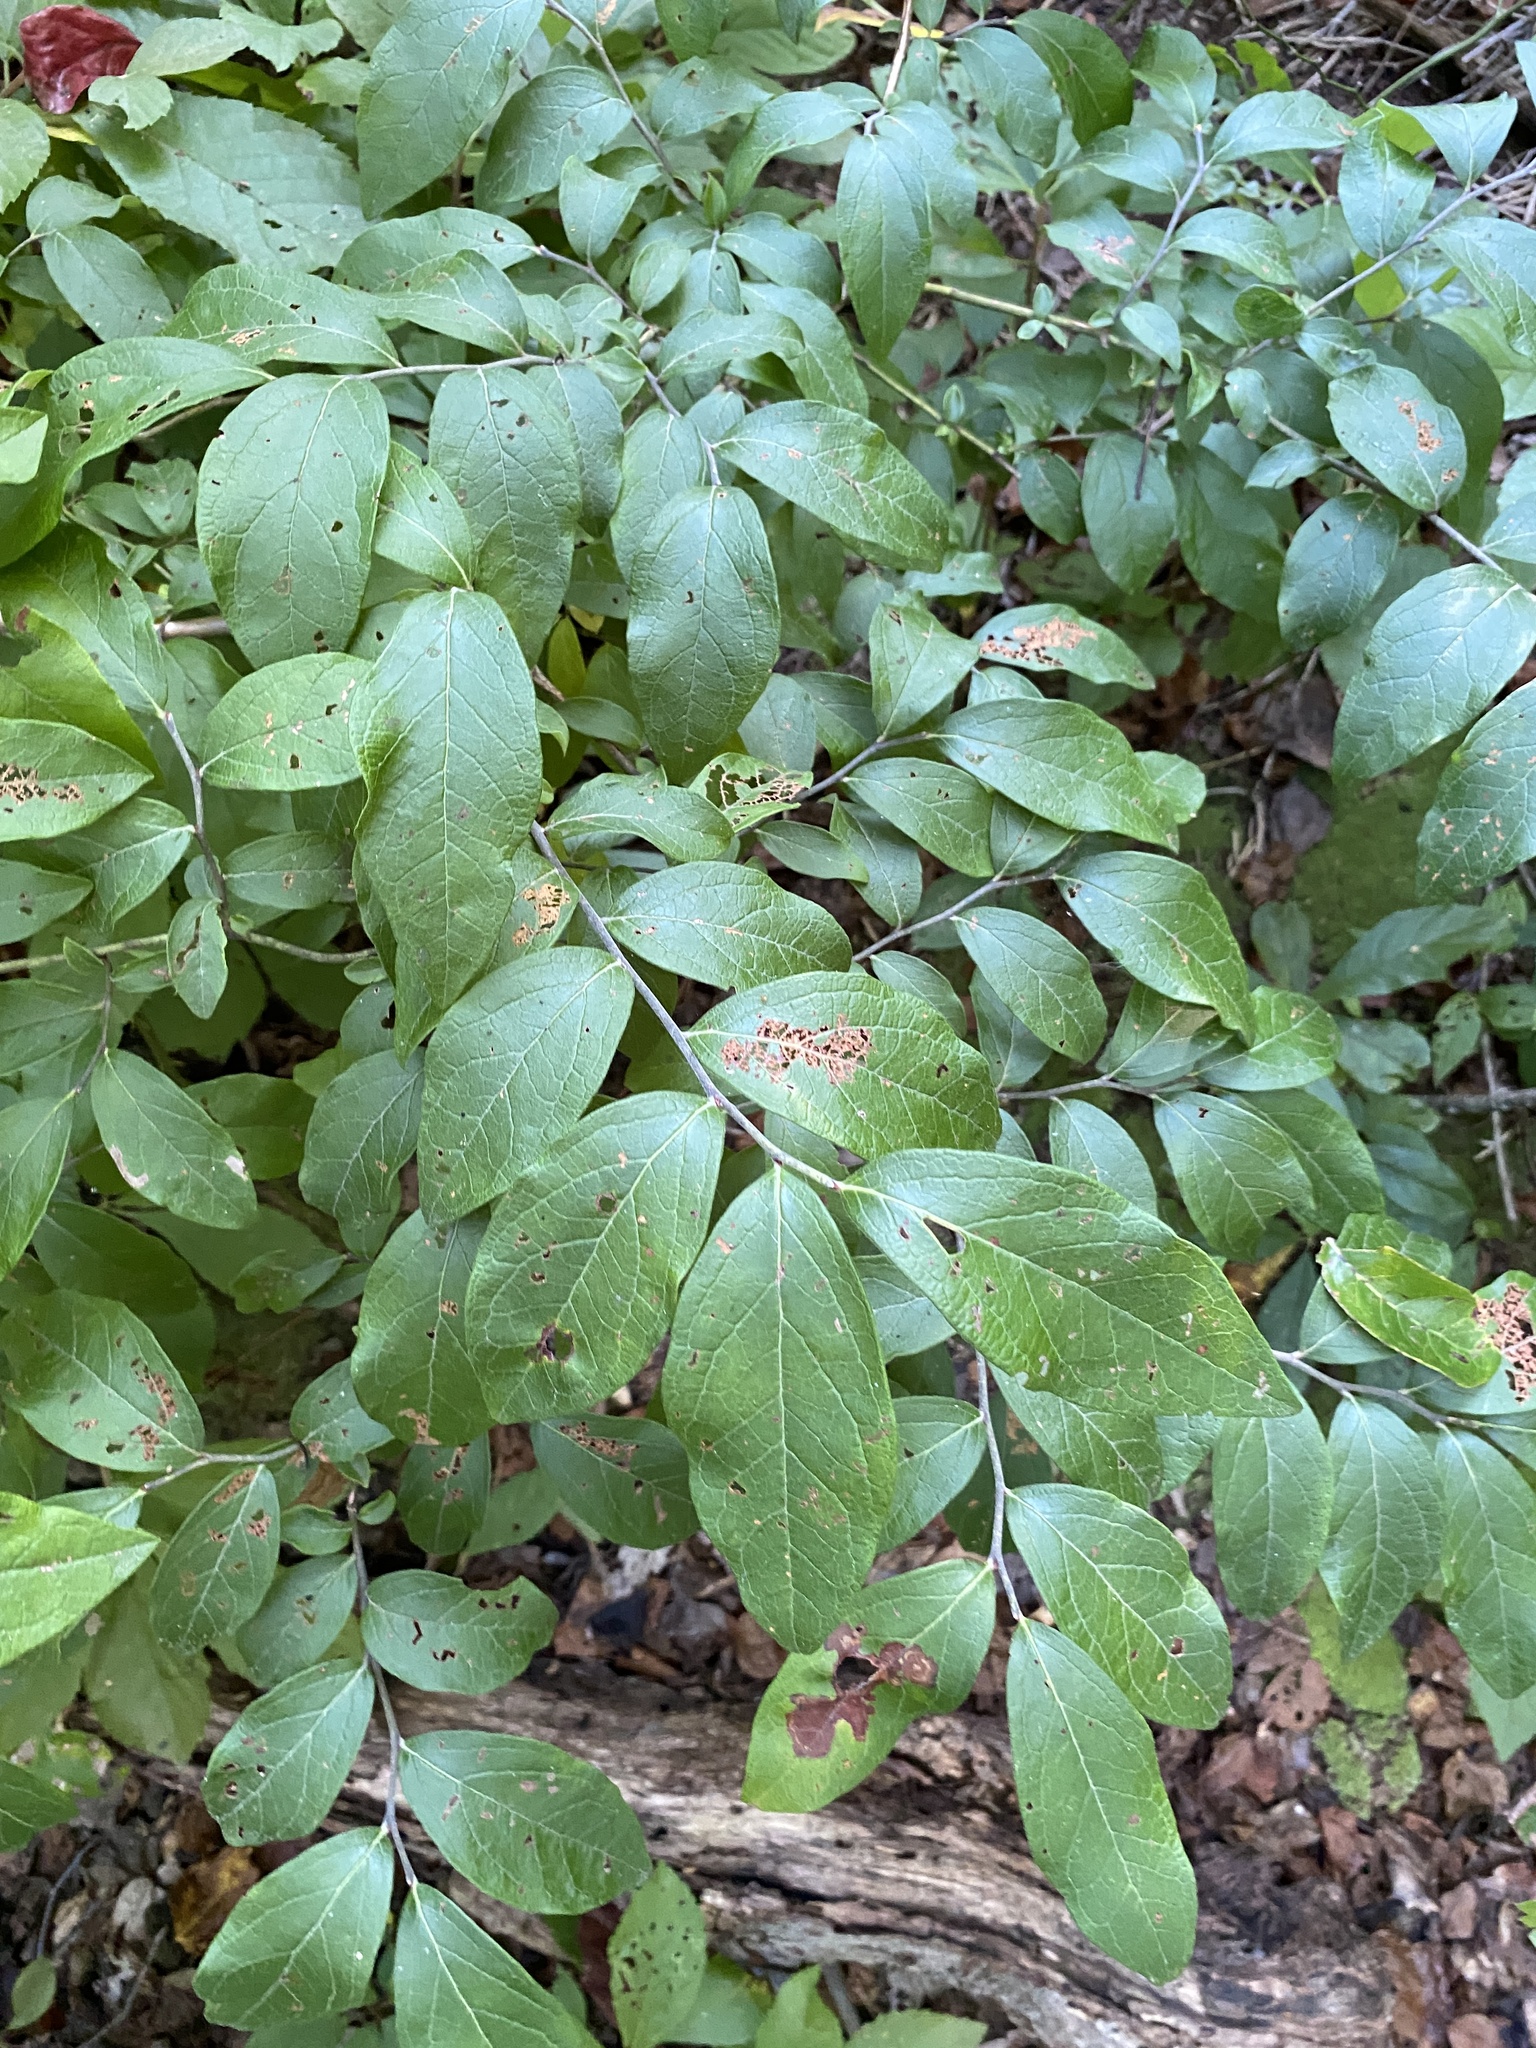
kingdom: Plantae
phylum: Tracheophyta
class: Magnoliopsida
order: Ericales
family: Ericaceae
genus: Vaccinium
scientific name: Vaccinium stamineum
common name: Deerberry
